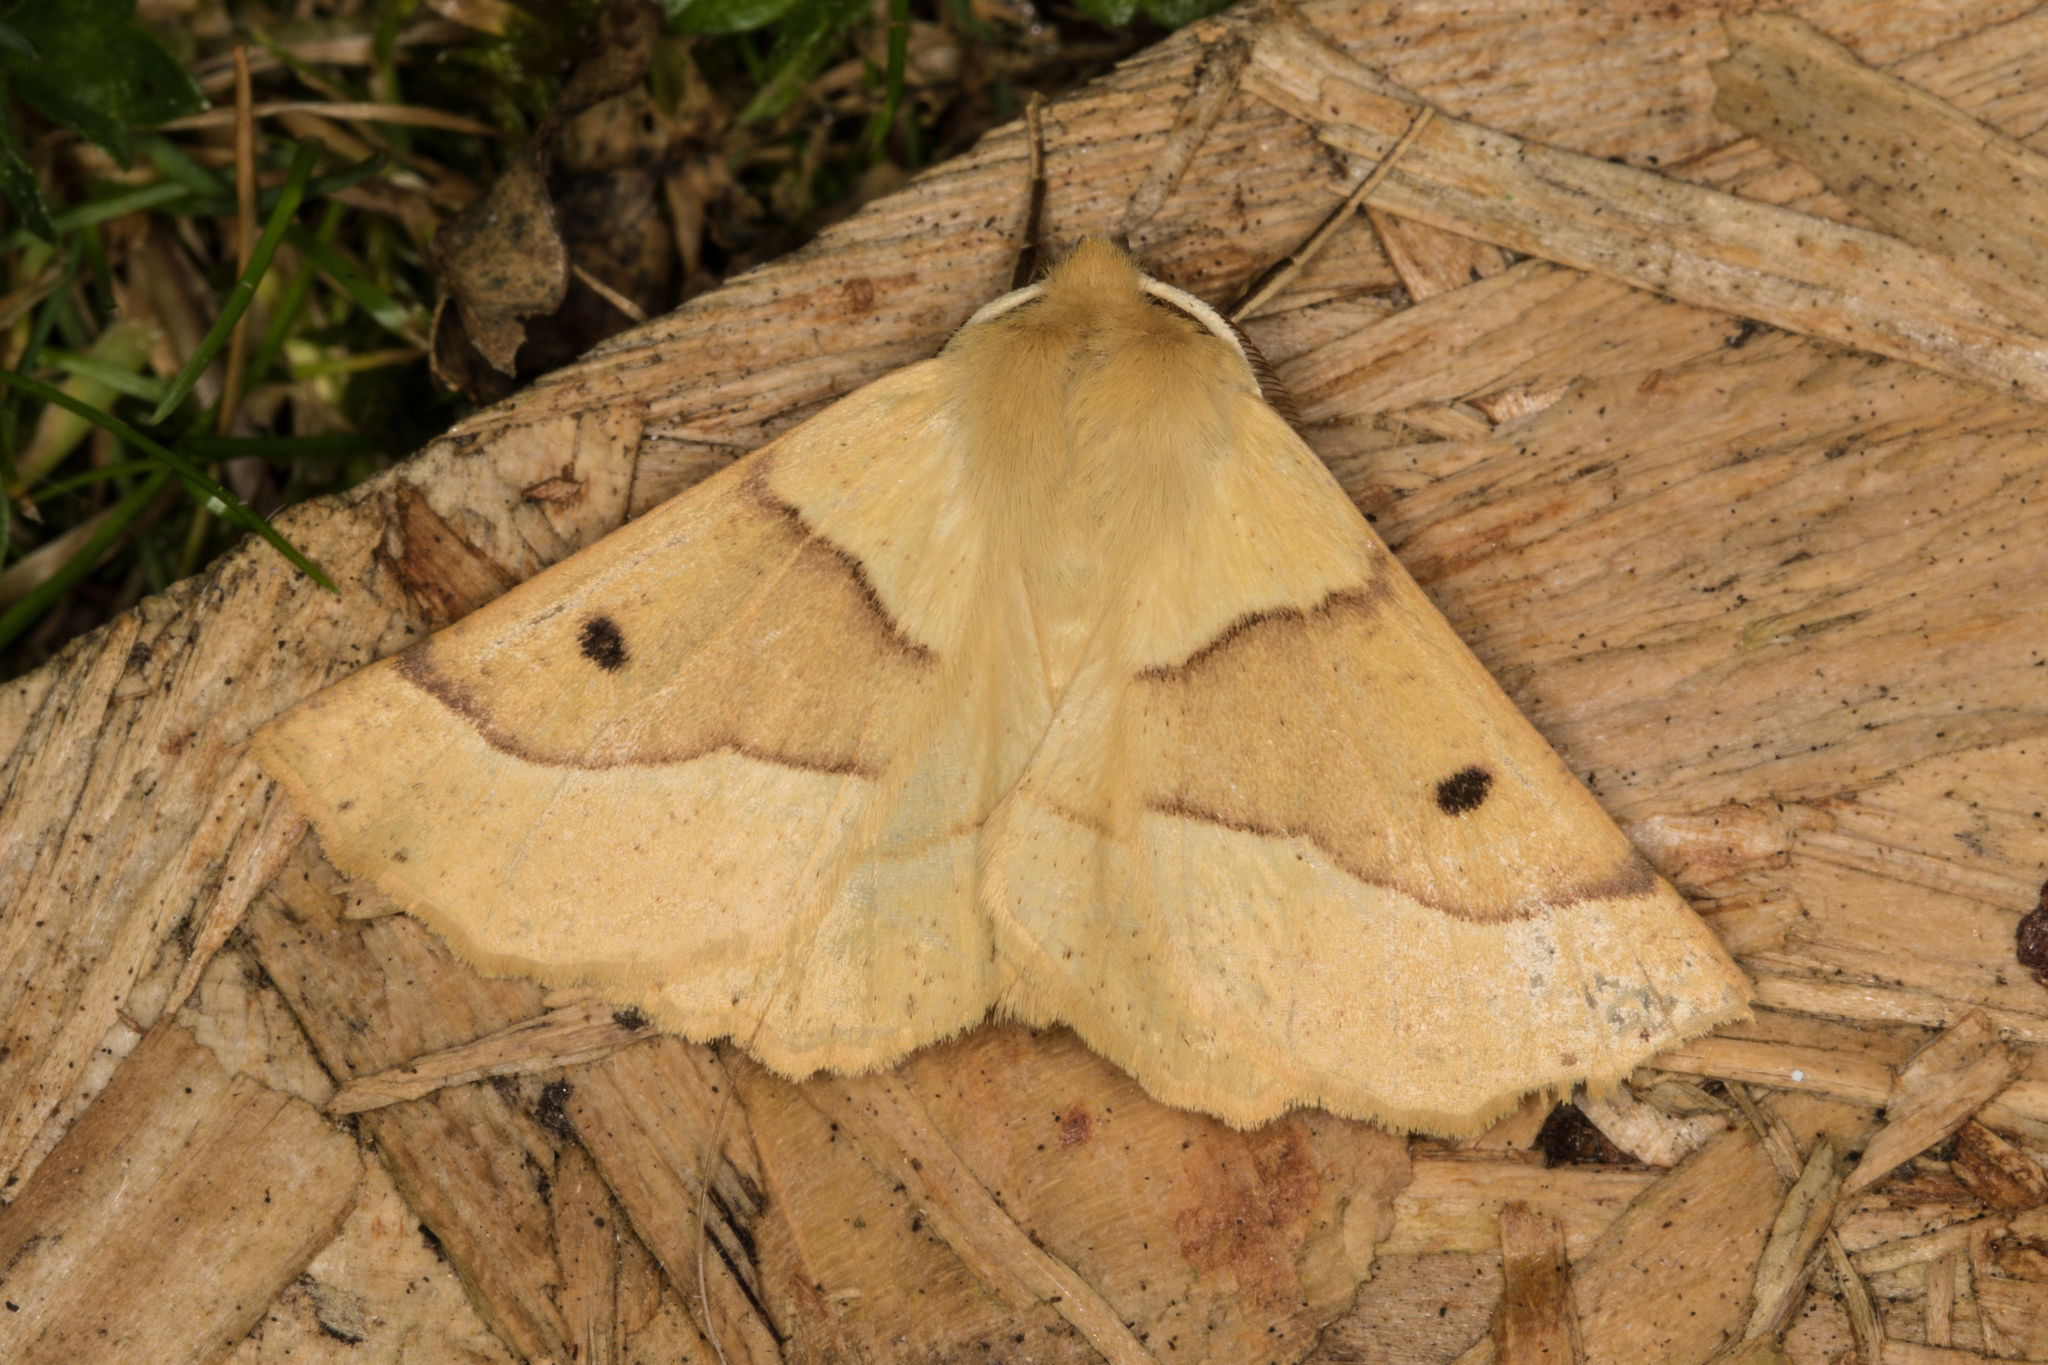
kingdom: Animalia
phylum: Arthropoda
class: Insecta
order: Lepidoptera
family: Geometridae
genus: Crocallis
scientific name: Crocallis elinguaria
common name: Scalloped oak
